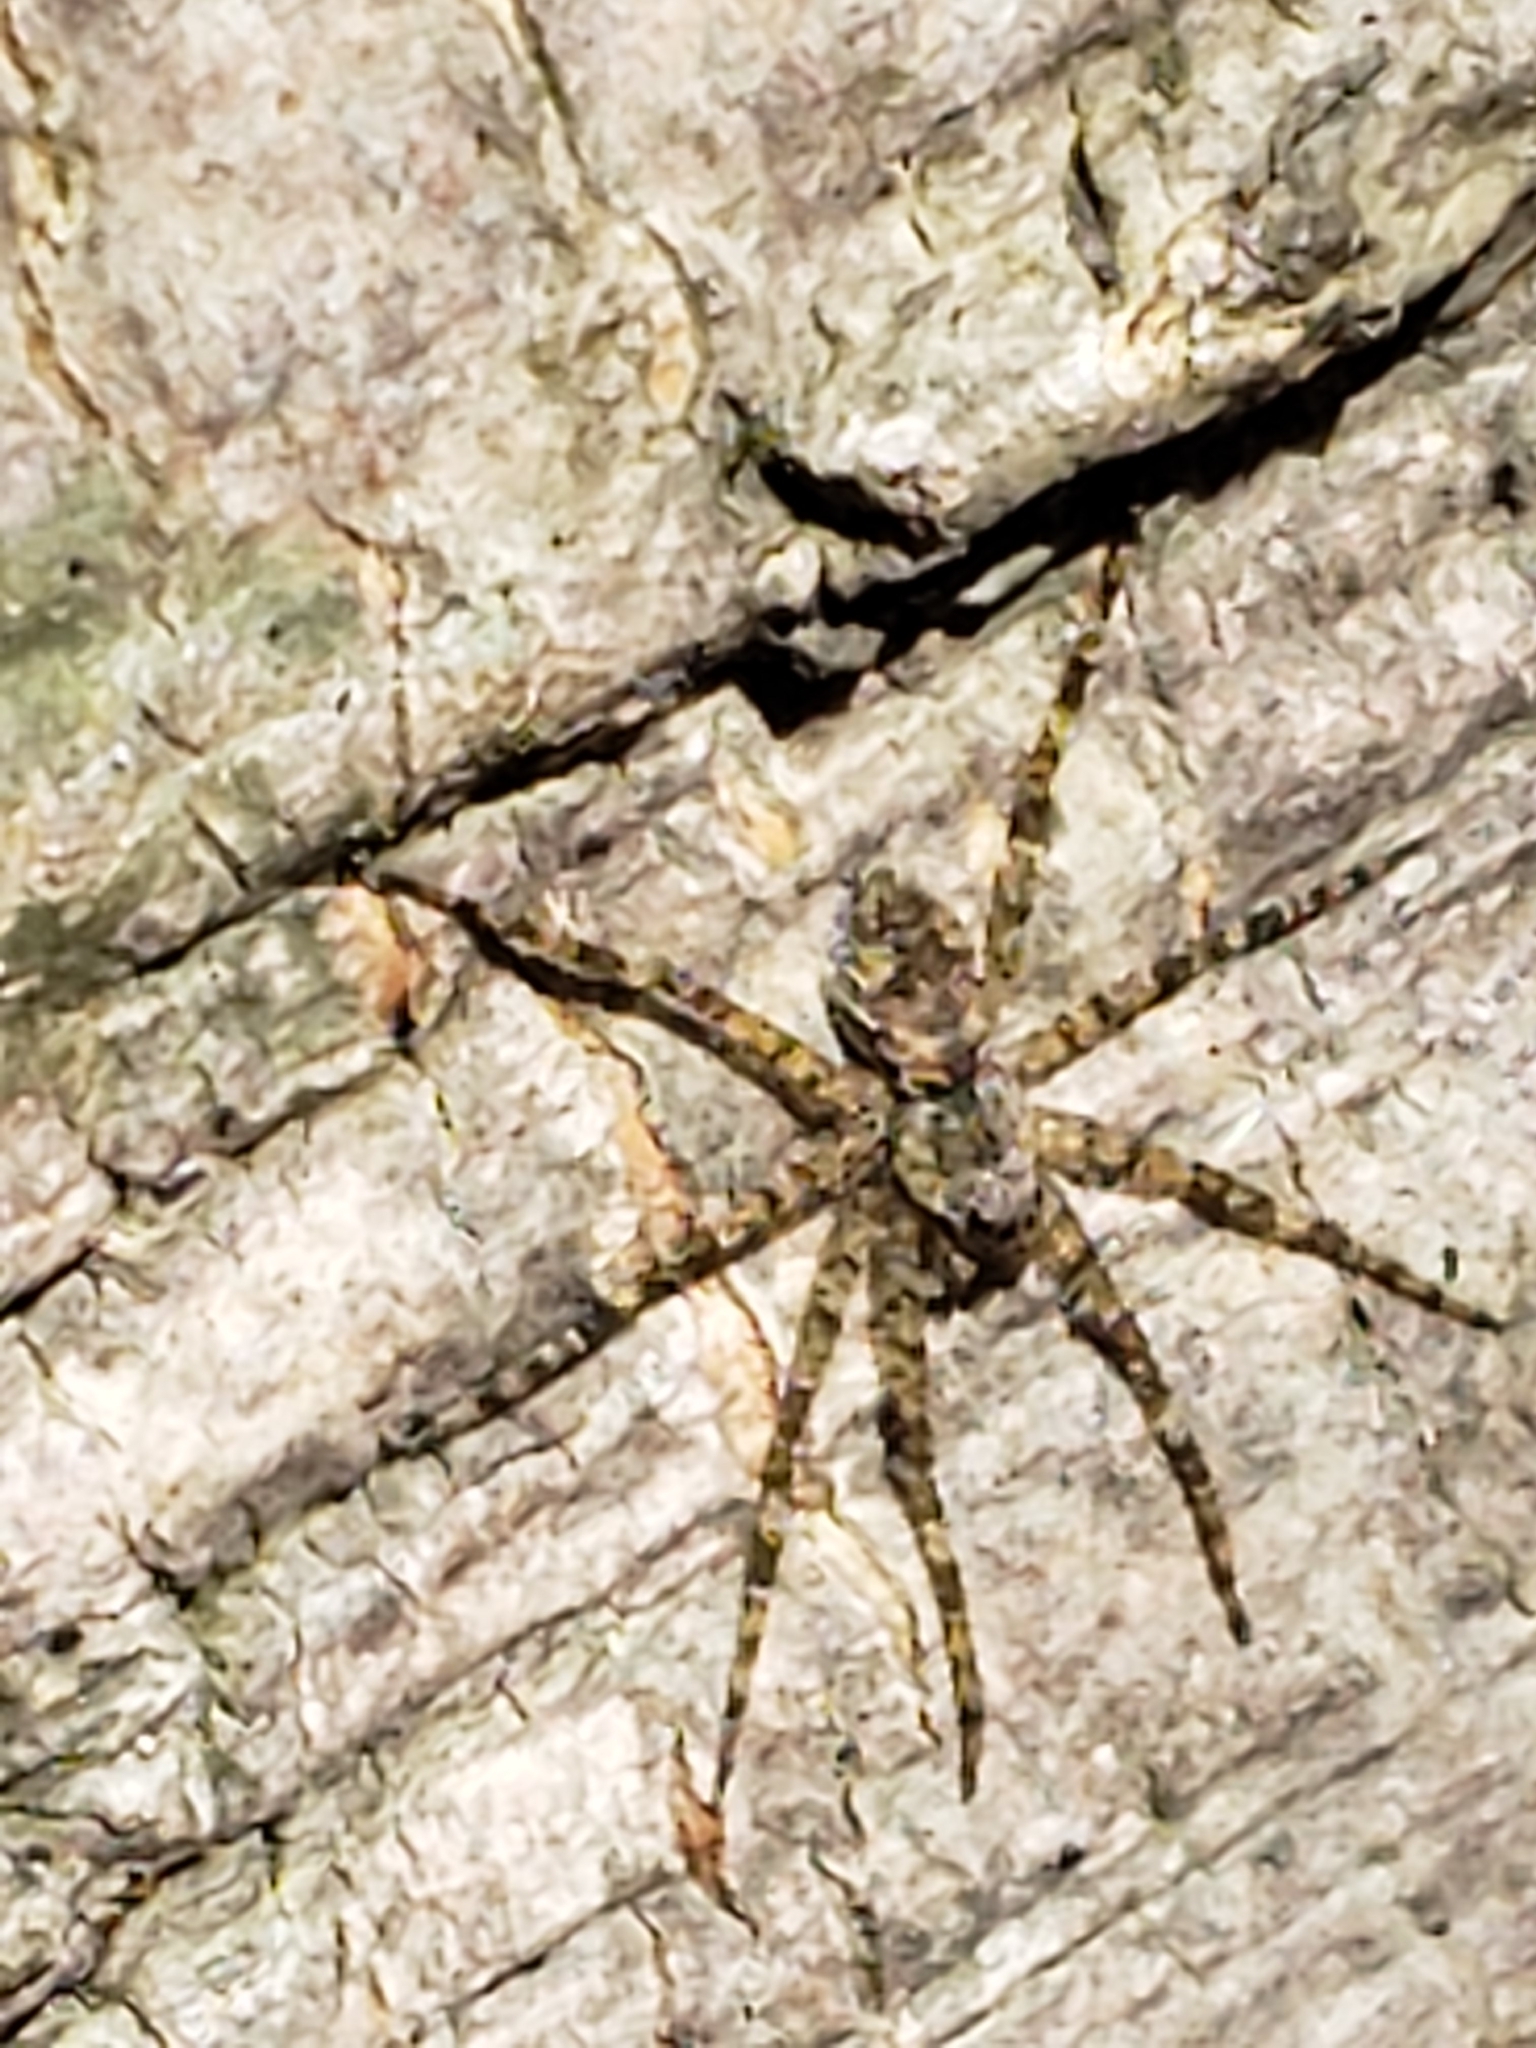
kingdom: Animalia
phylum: Arthropoda
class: Arachnida
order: Araneae
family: Pisauridae
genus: Dolomedes
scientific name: Dolomedes albineus
